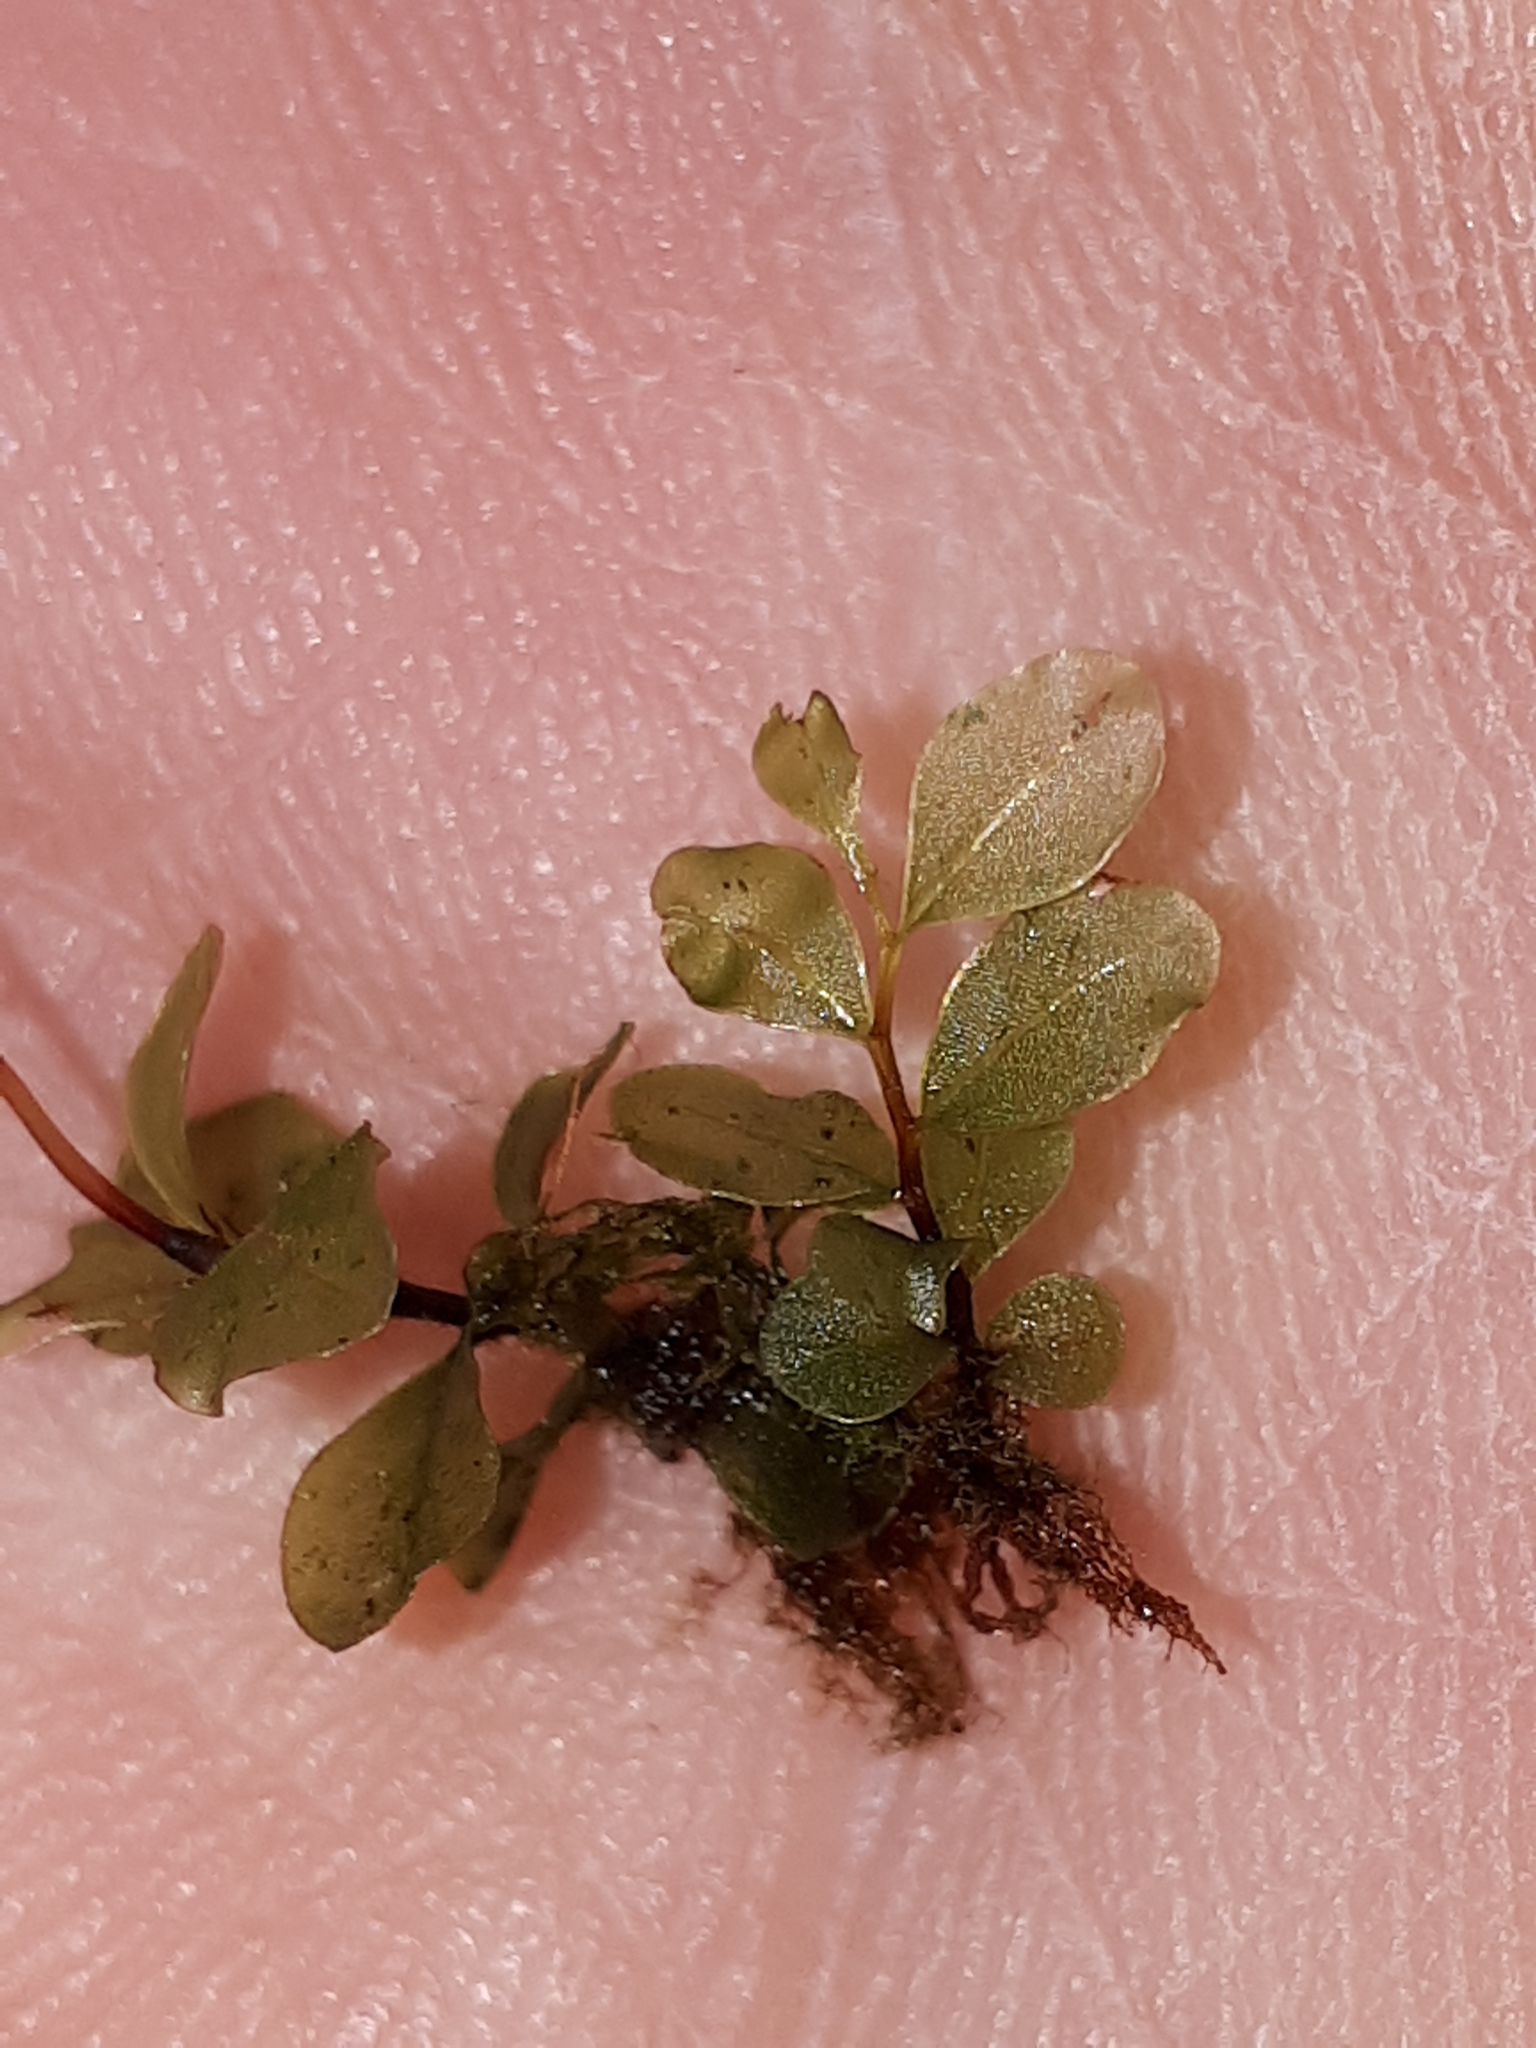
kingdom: Plantae
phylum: Bryophyta
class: Bryopsida
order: Bryales
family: Mniaceae
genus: Rhizomnium
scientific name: Rhizomnium punctatum
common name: Dotted leafy moss
